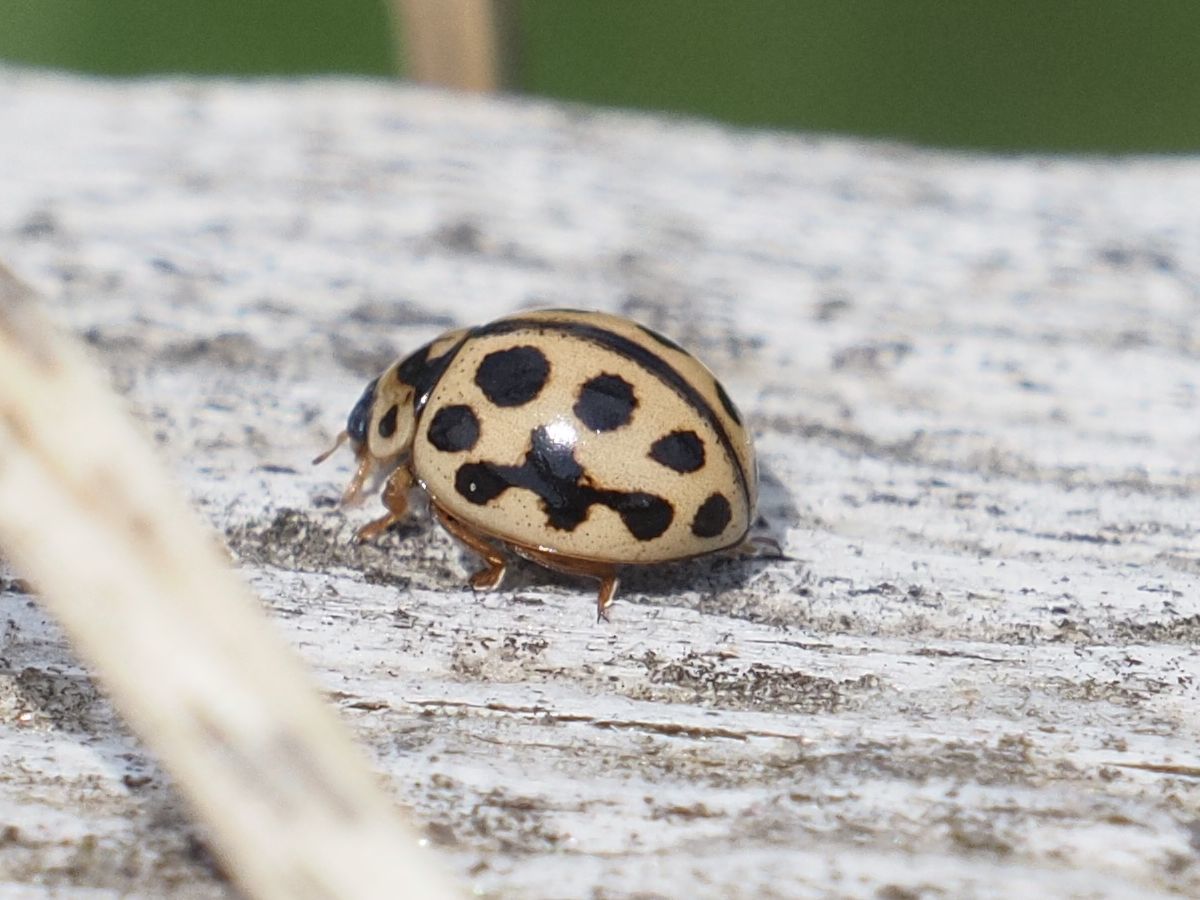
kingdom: Animalia
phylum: Arthropoda
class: Insecta
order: Coleoptera
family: Coccinellidae
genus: Tytthaspis
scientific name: Tytthaspis sedecimpunctata
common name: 16-spot ladybird
